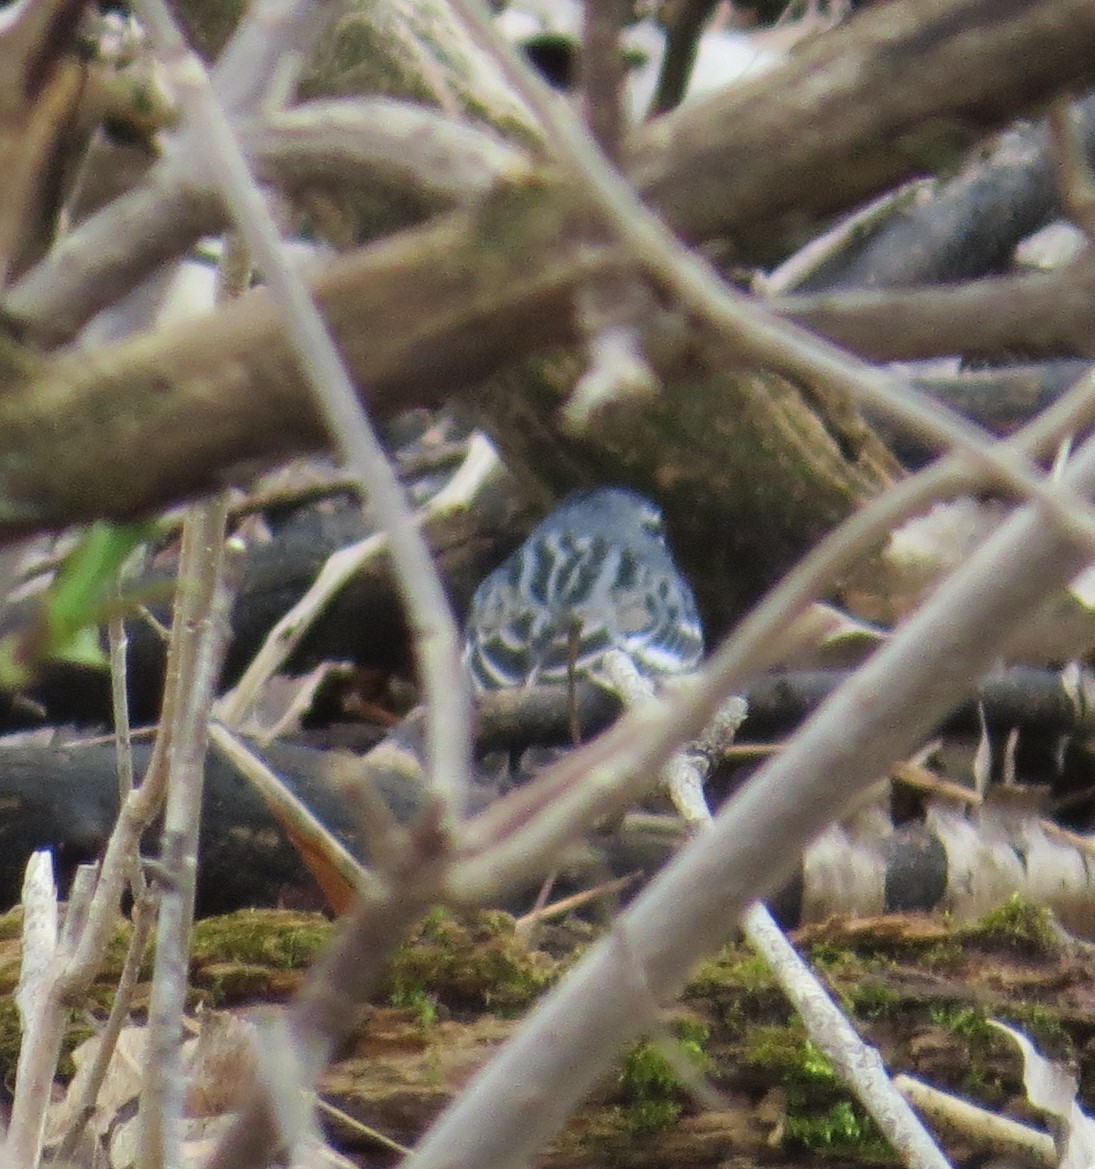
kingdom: Animalia
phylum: Chordata
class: Aves
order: Passeriformes
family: Parulidae
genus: Setophaga
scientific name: Setophaga coronata
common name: Myrtle warbler
